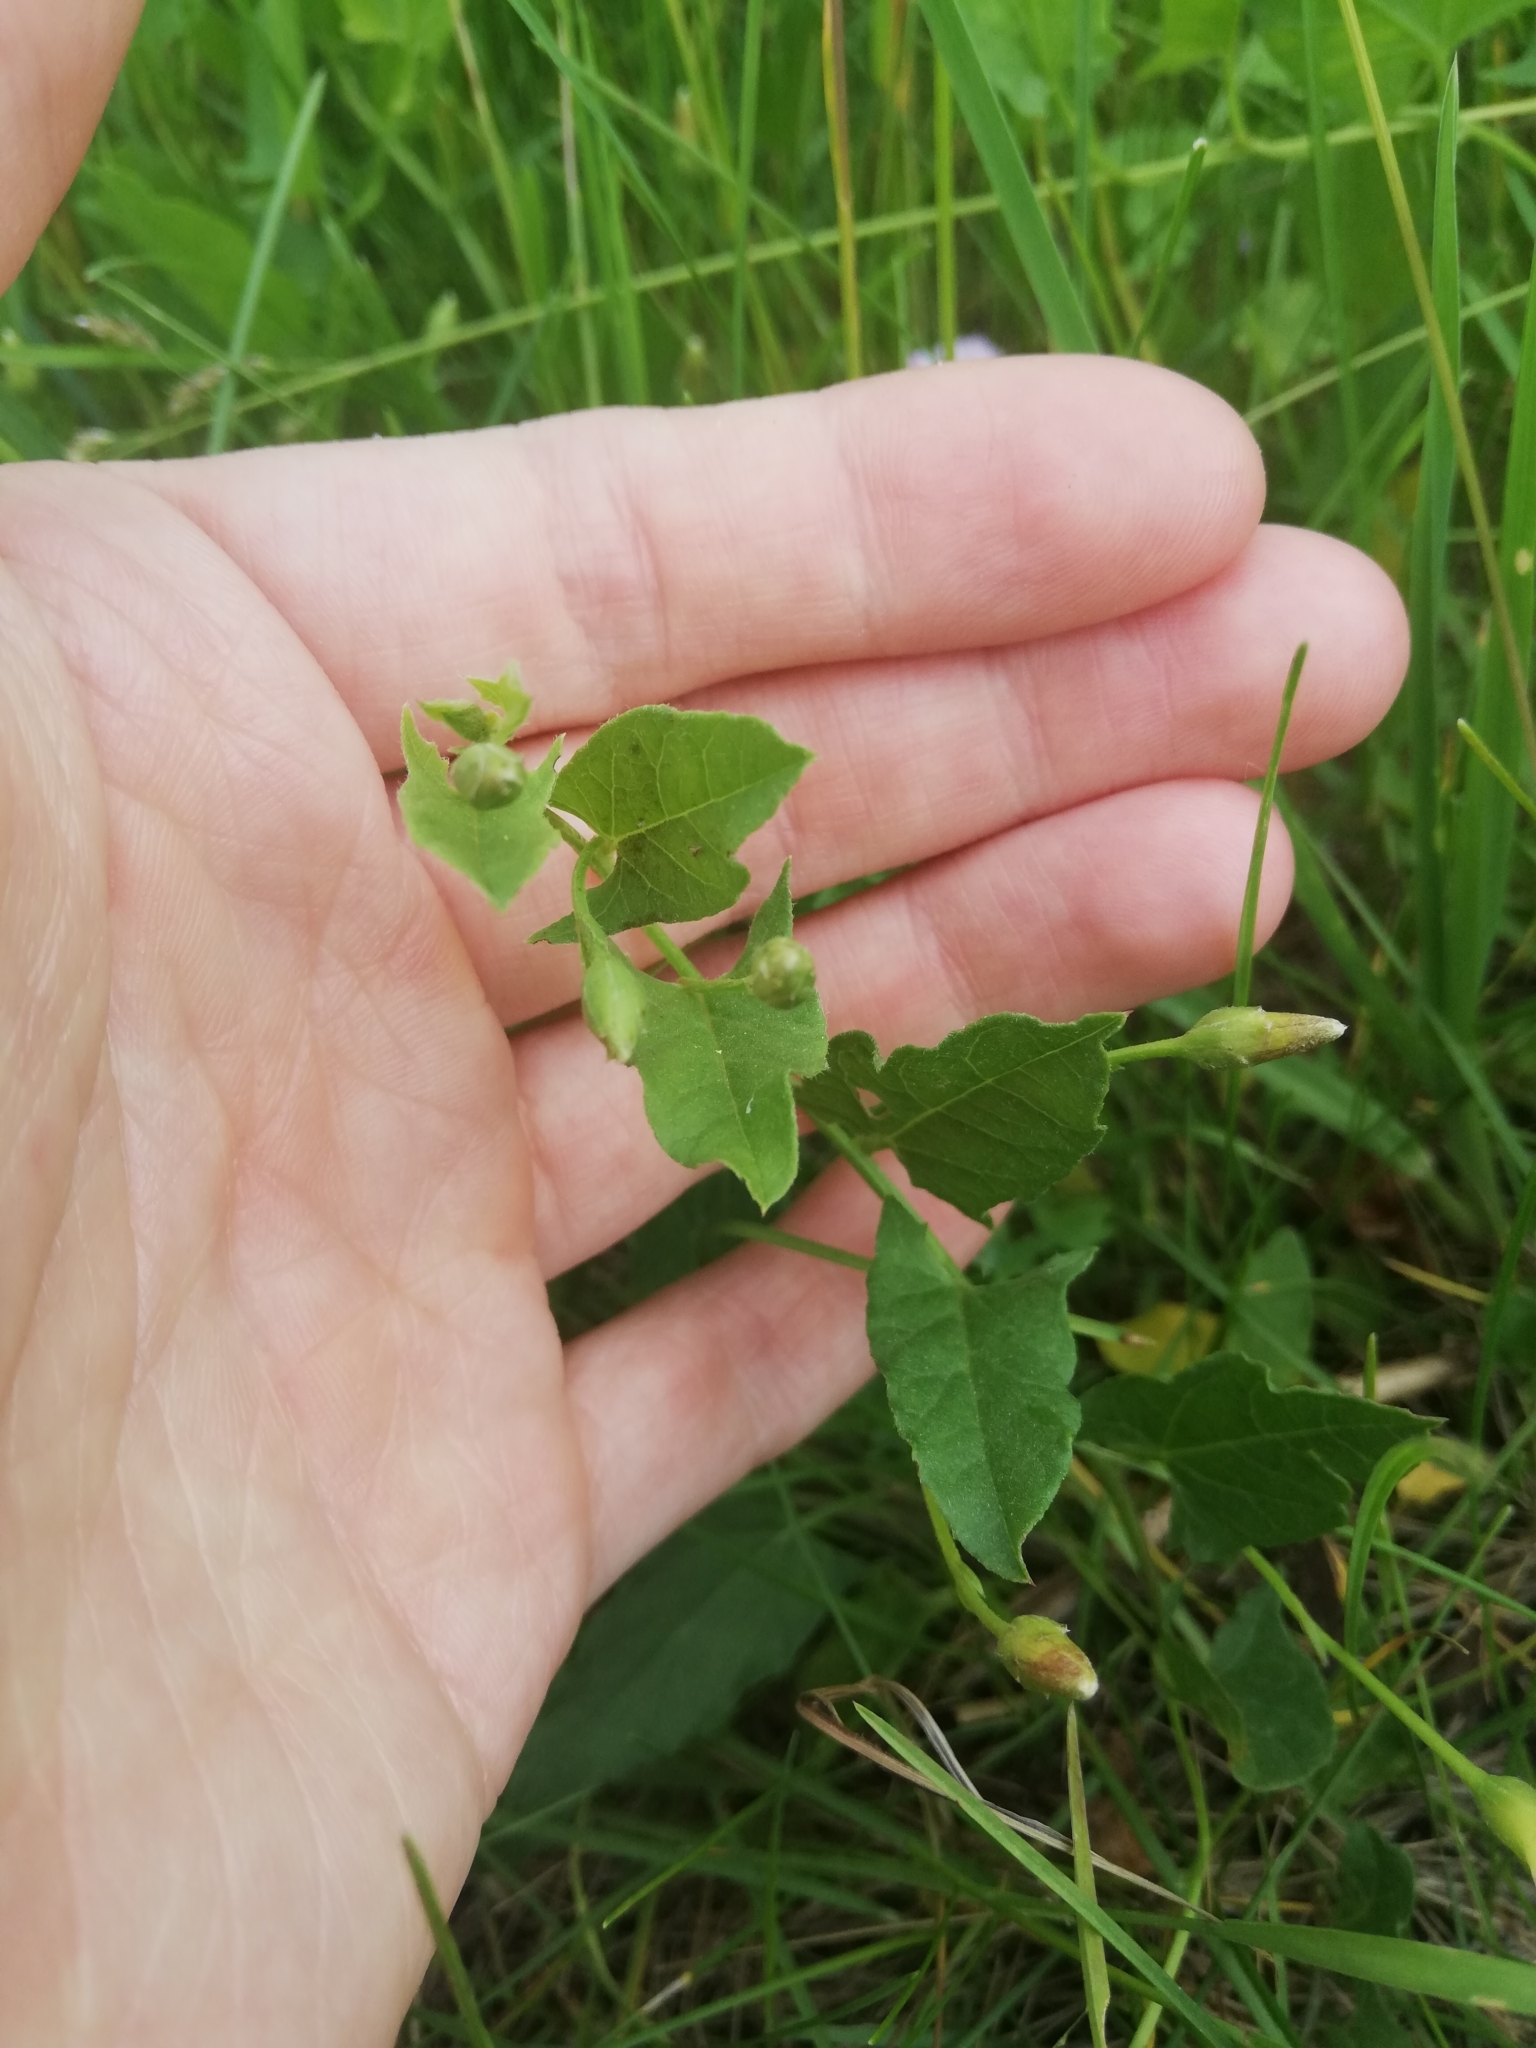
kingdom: Plantae
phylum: Tracheophyta
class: Magnoliopsida
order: Solanales
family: Convolvulaceae
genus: Convolvulus
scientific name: Convolvulus arvensis
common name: Field bindweed
